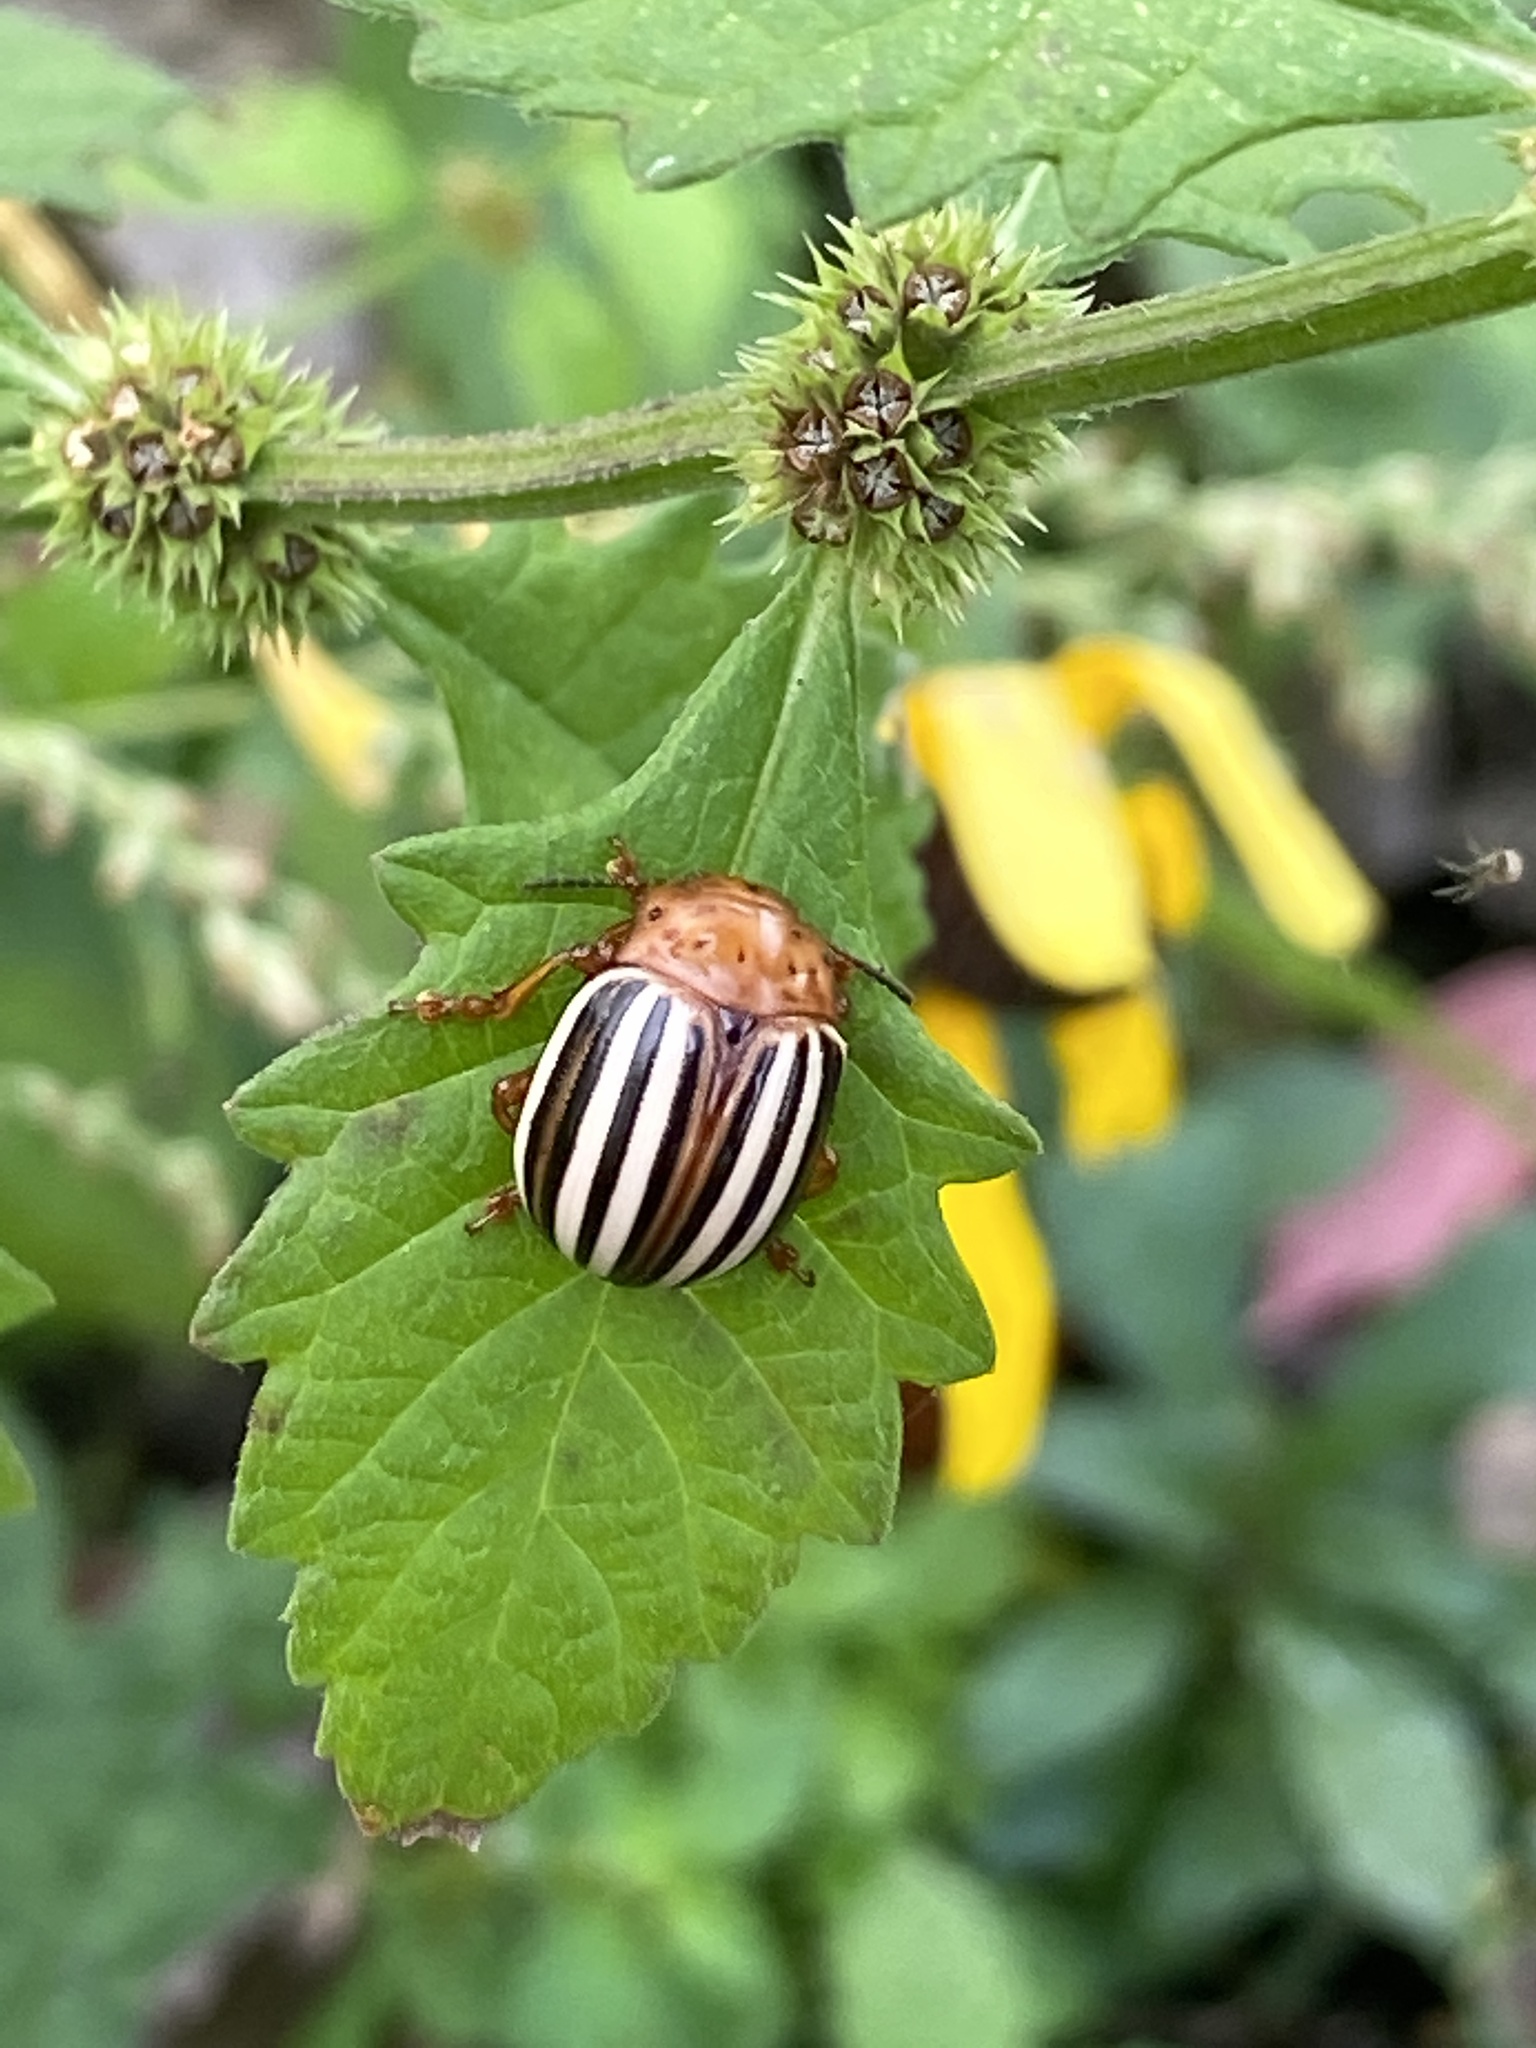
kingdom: Animalia
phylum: Arthropoda
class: Insecta
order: Coleoptera
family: Chrysomelidae
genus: Leptinotarsa
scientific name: Leptinotarsa juncta
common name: False potato beetle
